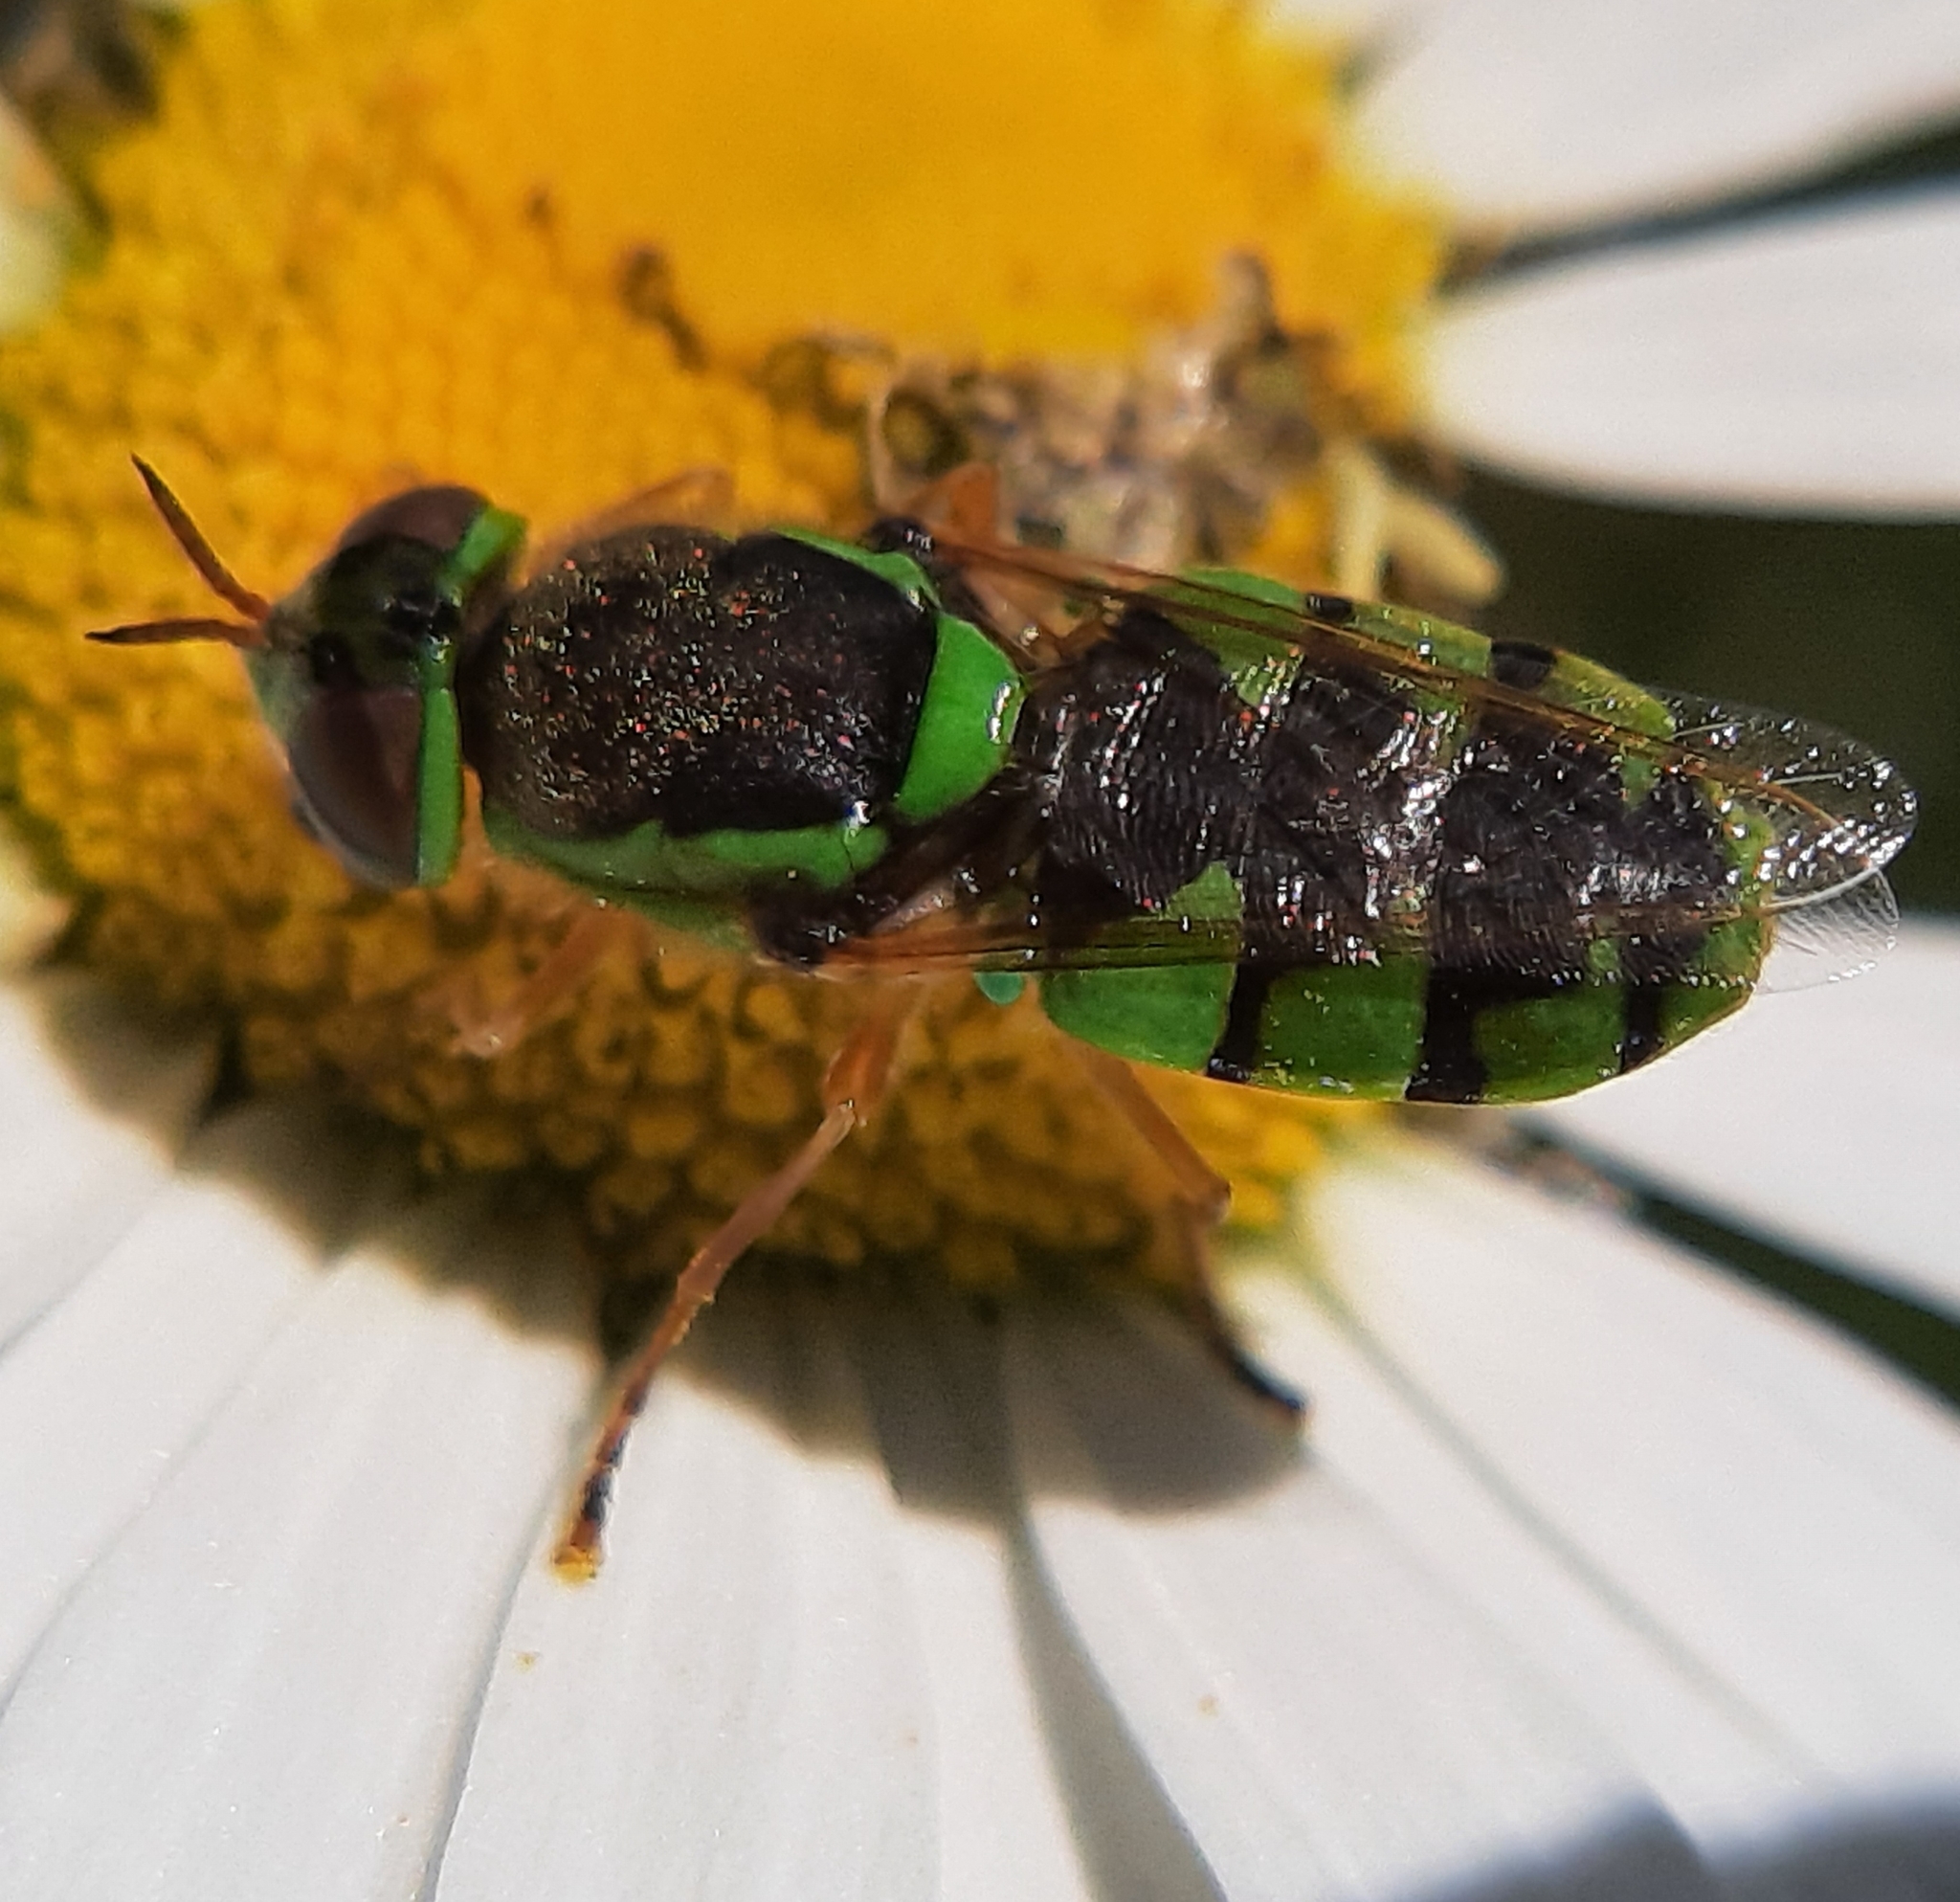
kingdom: Animalia
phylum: Arthropoda
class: Insecta
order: Diptera
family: Stratiomyidae
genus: Odontomyia
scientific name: Odontomyia cincta
